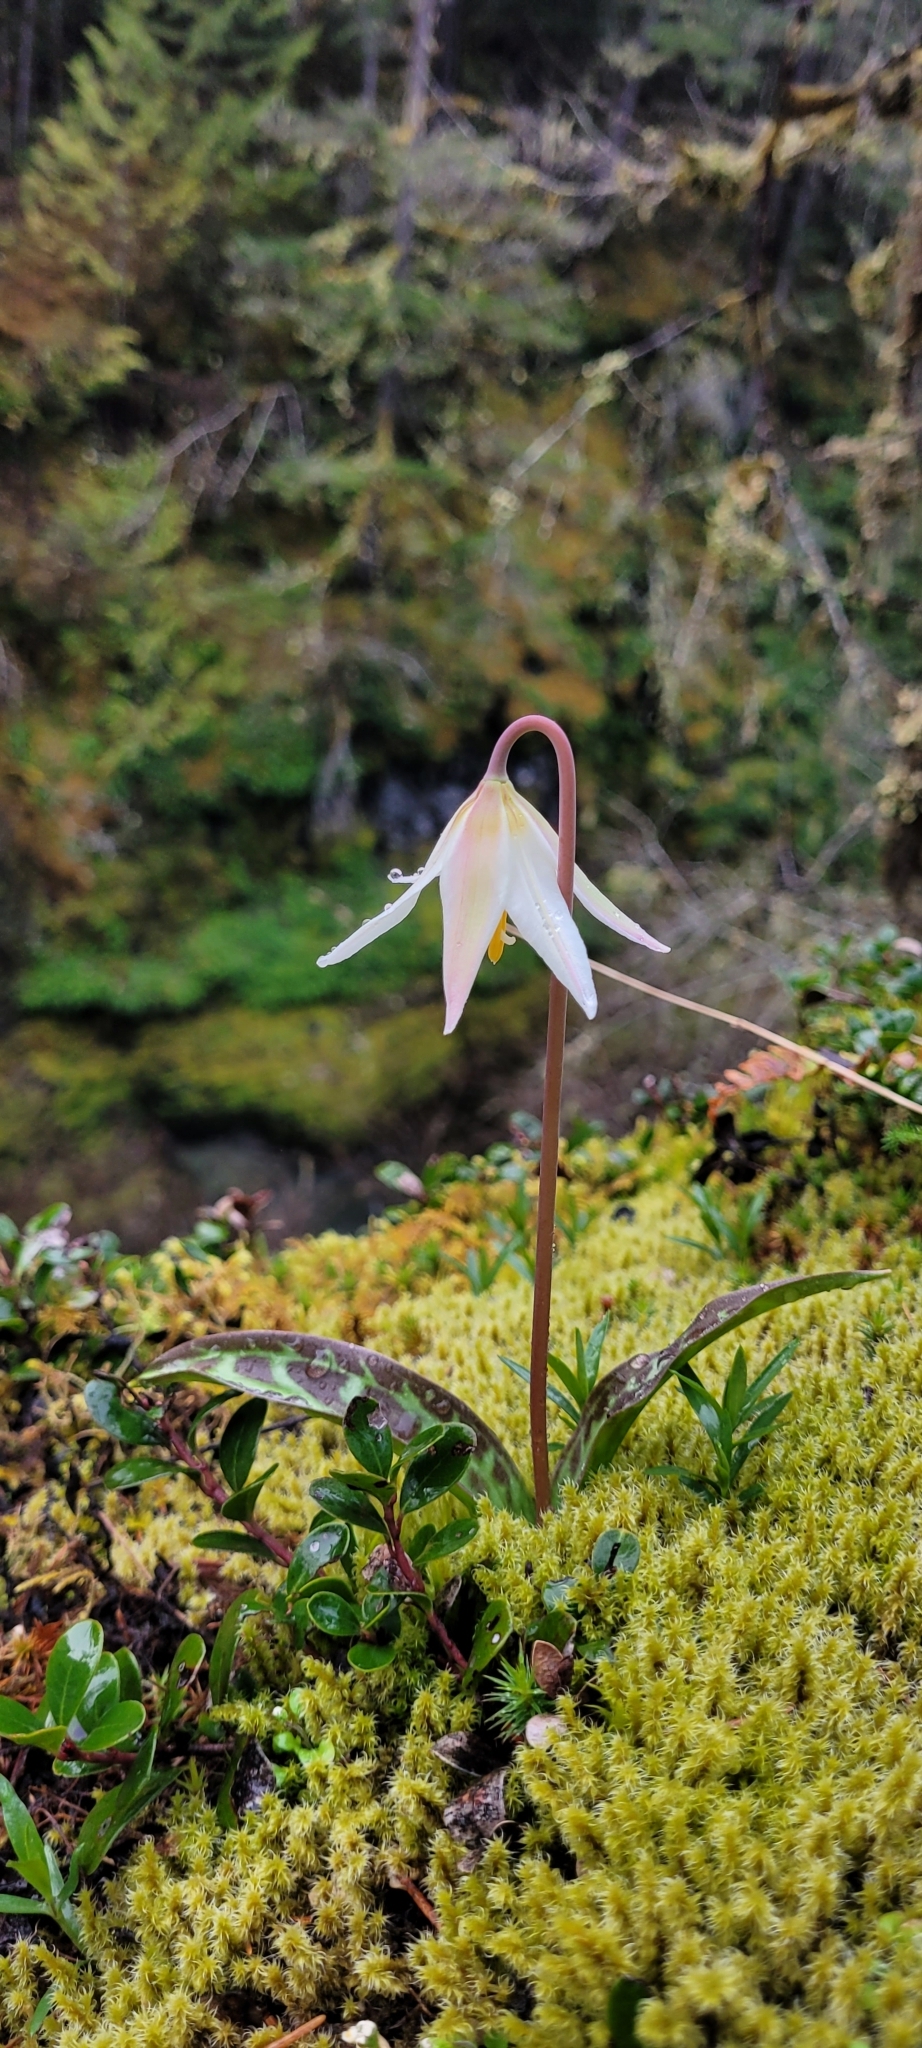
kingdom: Plantae
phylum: Tracheophyta
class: Liliopsida
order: Liliales
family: Liliaceae
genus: Erythronium
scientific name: Erythronium oregonum
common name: Giant adder's-tongue
